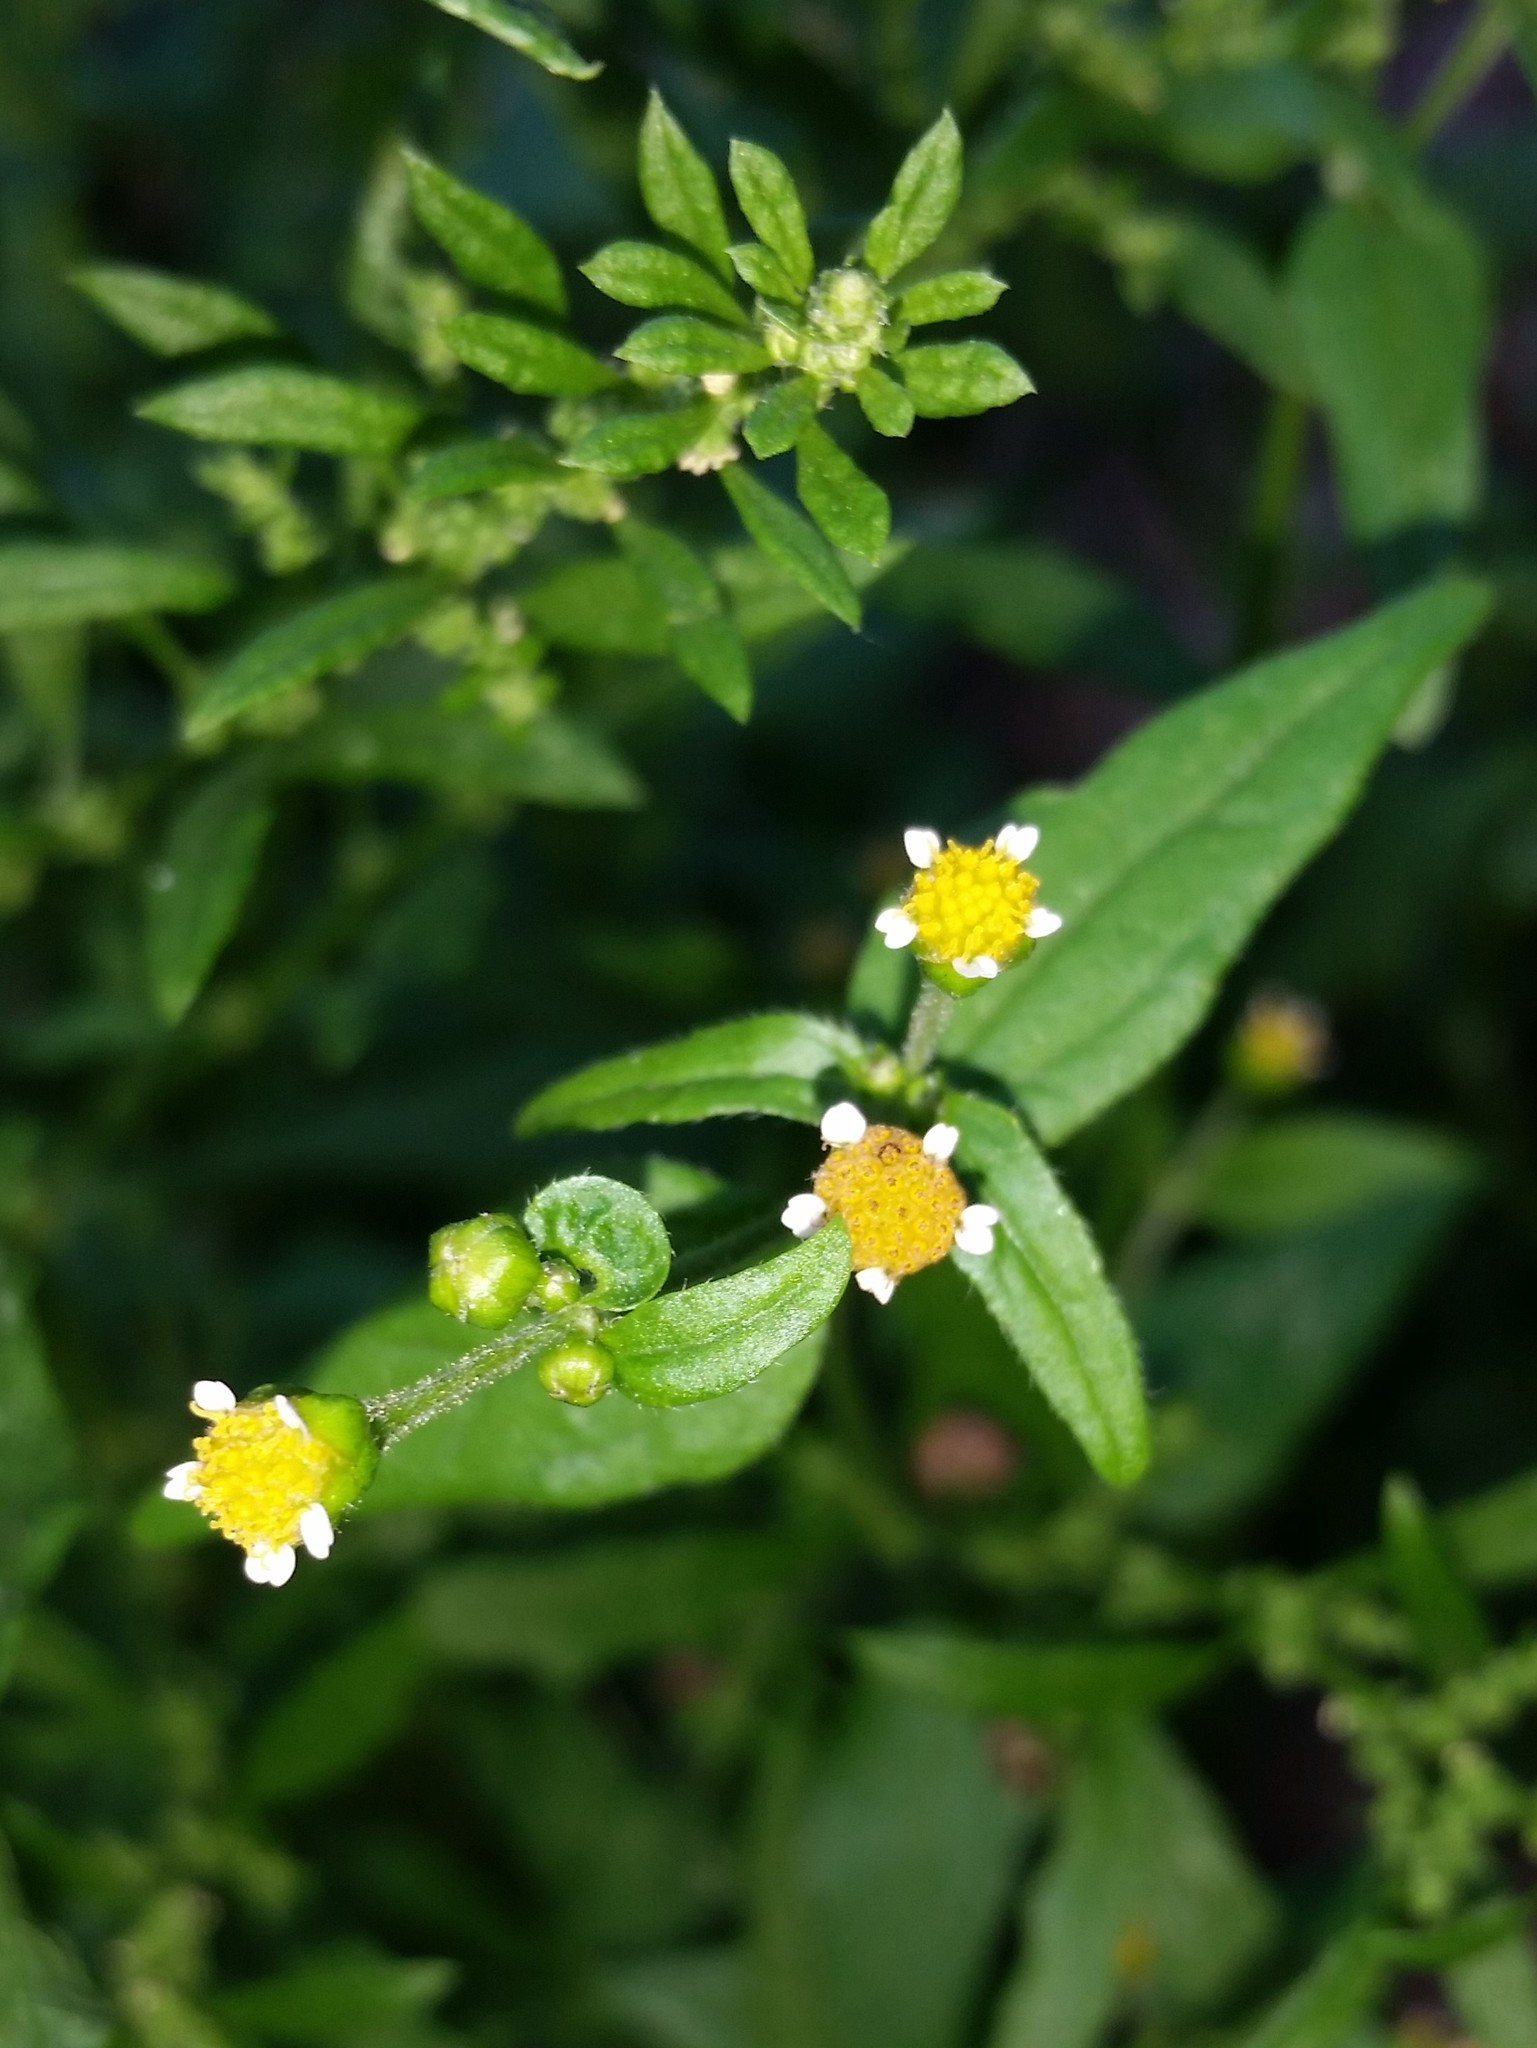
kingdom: Plantae
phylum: Tracheophyta
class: Magnoliopsida
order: Asterales
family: Asteraceae
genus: Galinsoga
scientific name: Galinsoga parviflora
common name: Gallant soldier
